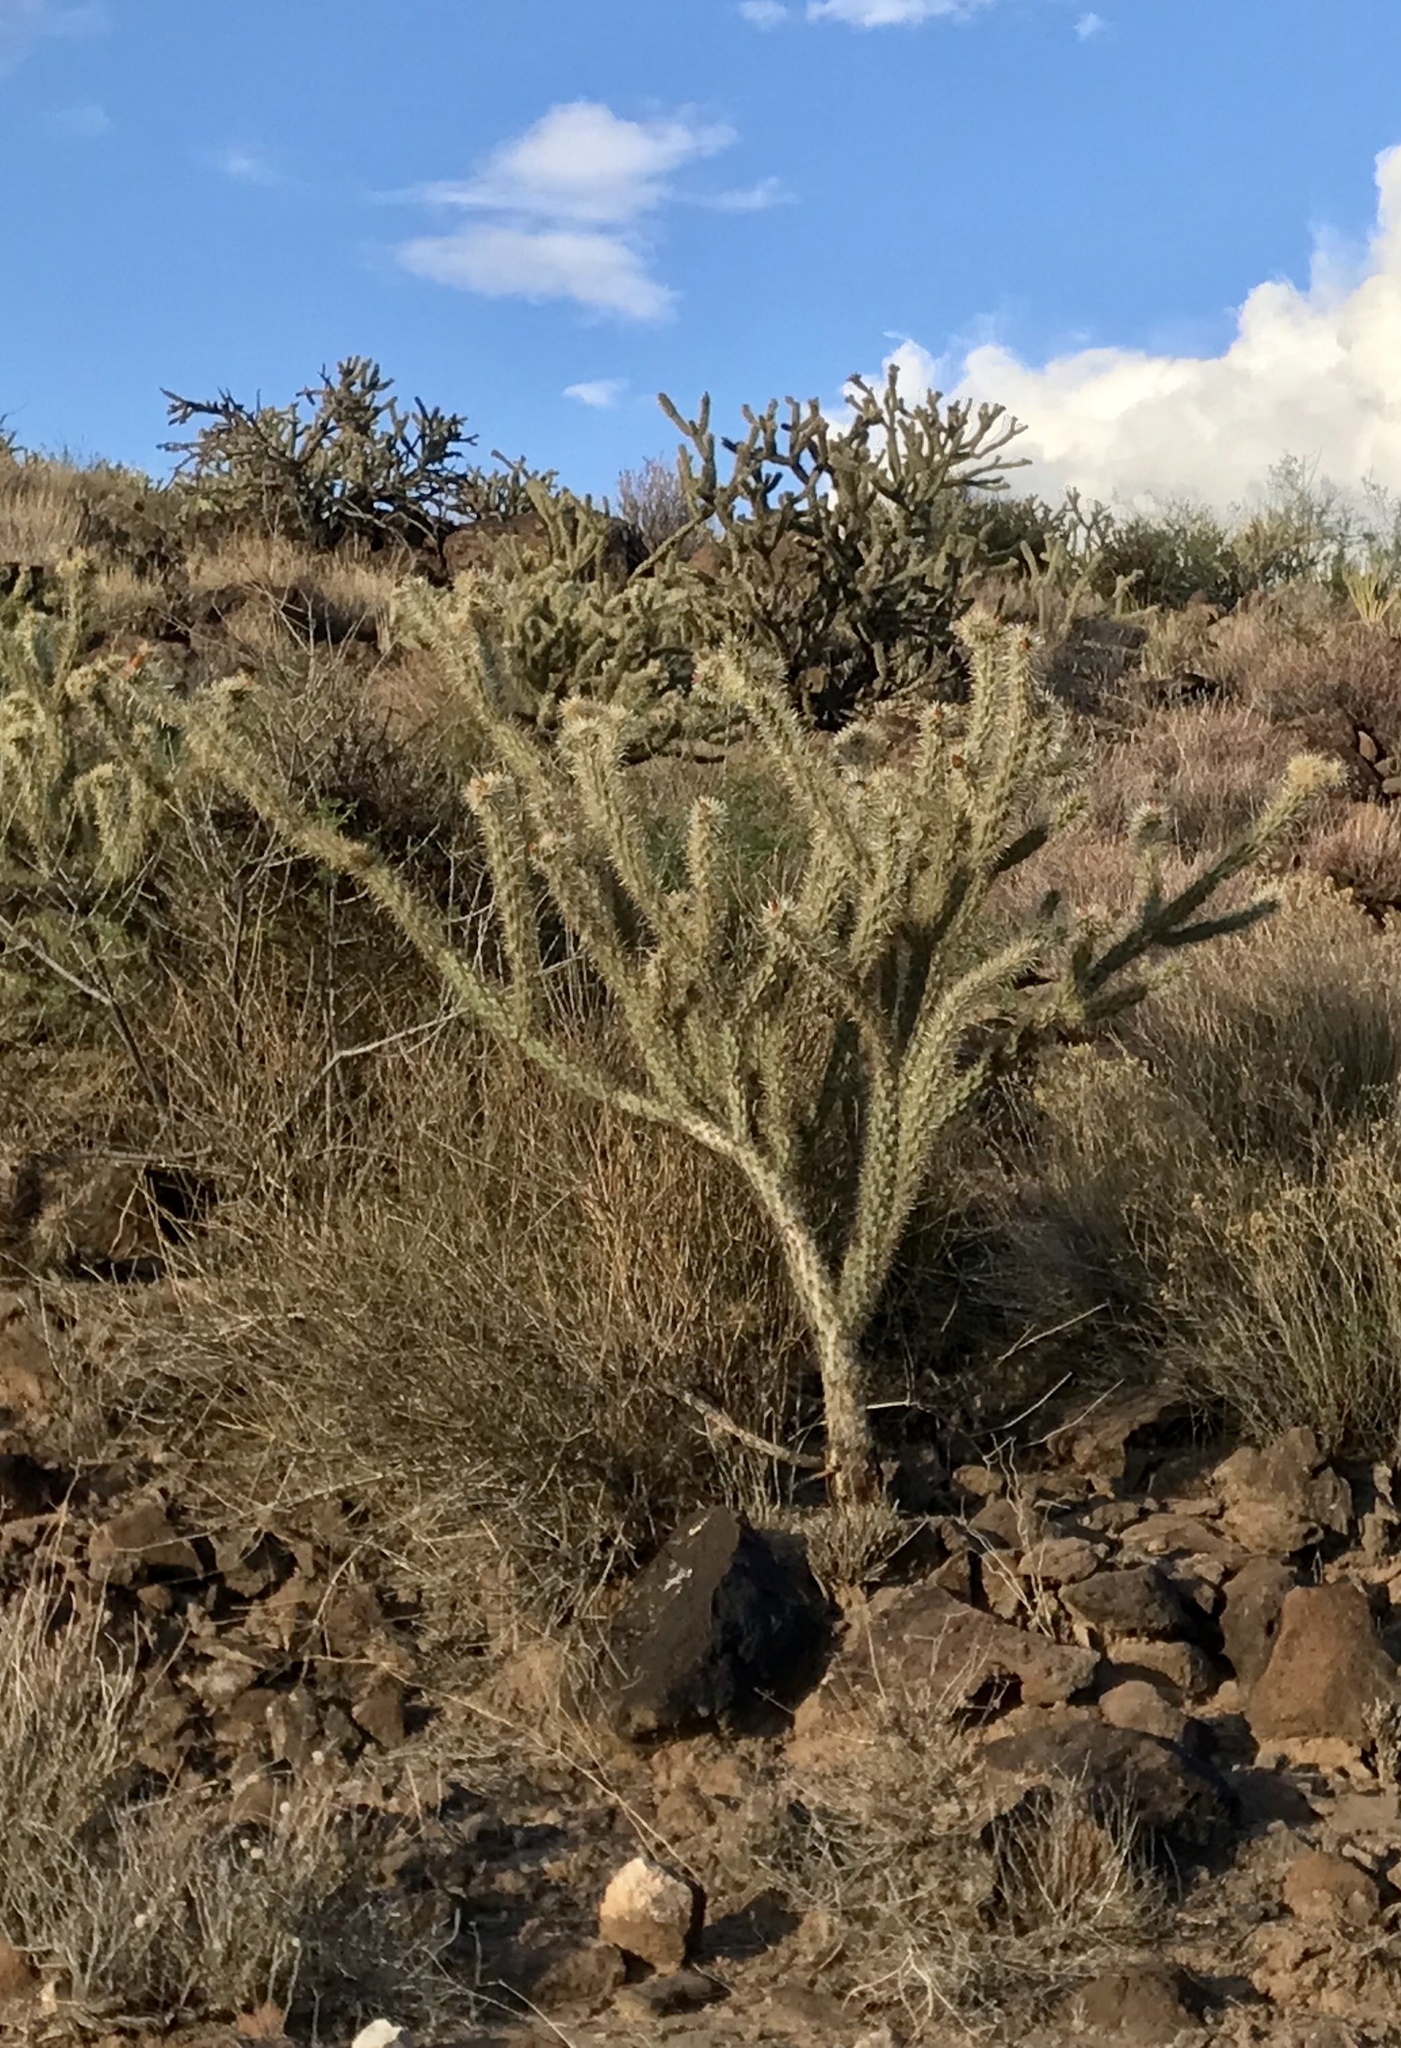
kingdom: Plantae
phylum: Tracheophyta
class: Magnoliopsida
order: Caryophyllales
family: Cactaceae
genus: Cylindropuntia
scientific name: Cylindropuntia acanthocarpa
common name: Buckhorn cholla
